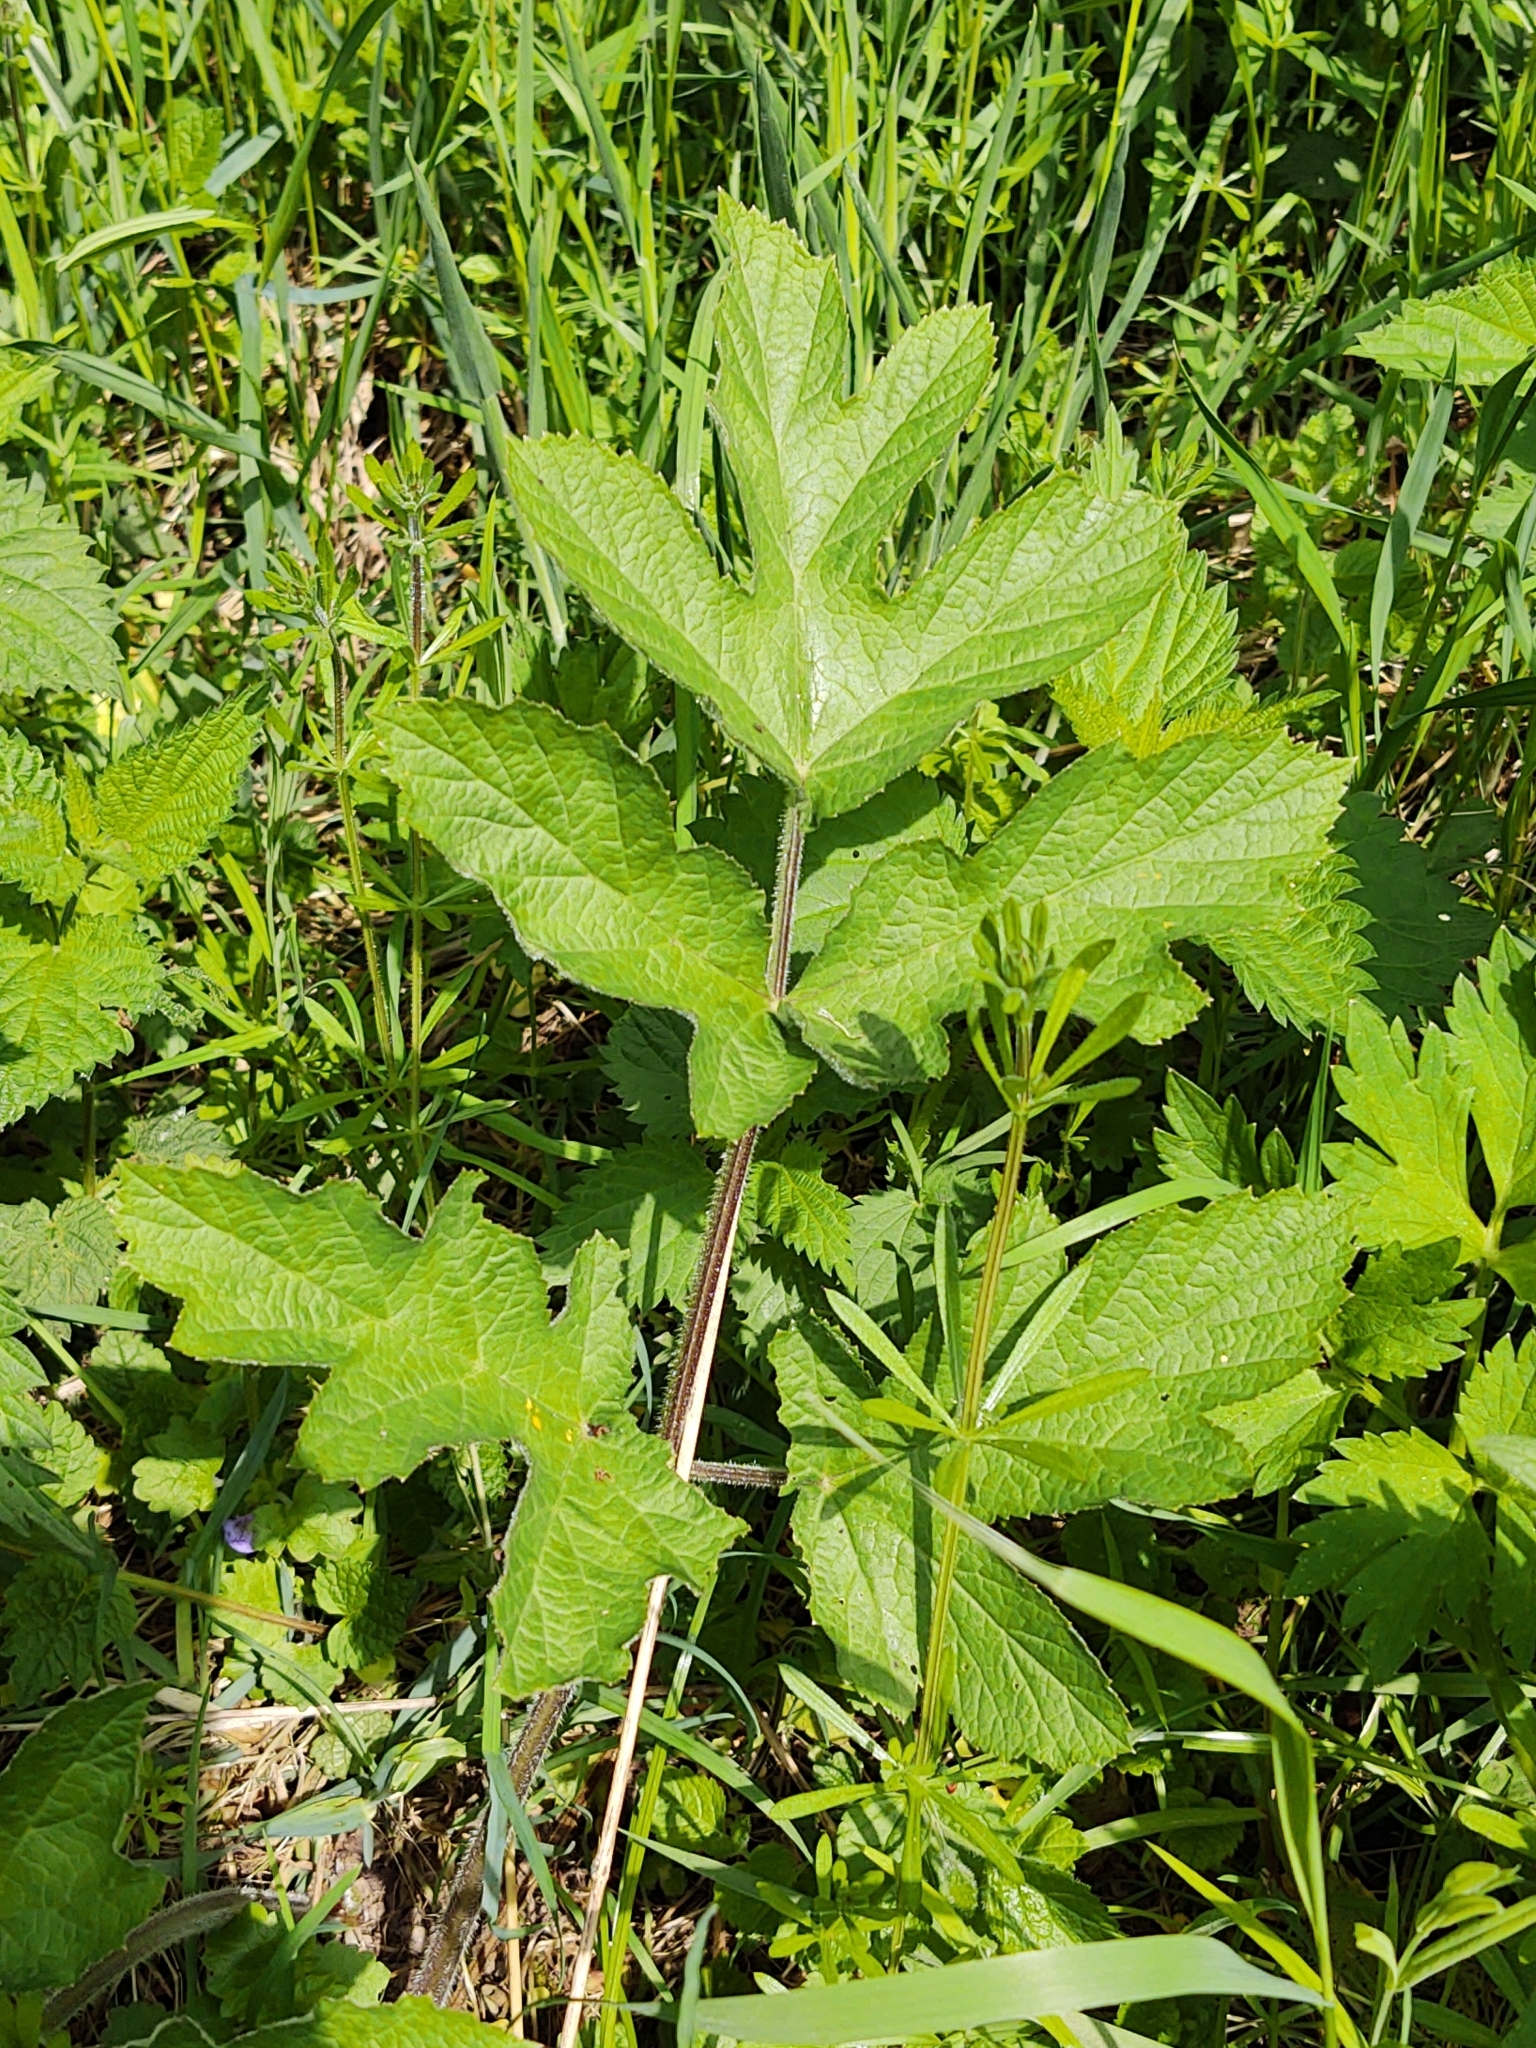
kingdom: Plantae
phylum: Tracheophyta
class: Magnoliopsida
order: Apiales
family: Apiaceae
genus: Heracleum
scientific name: Heracleum sphondylium
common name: Hogweed
